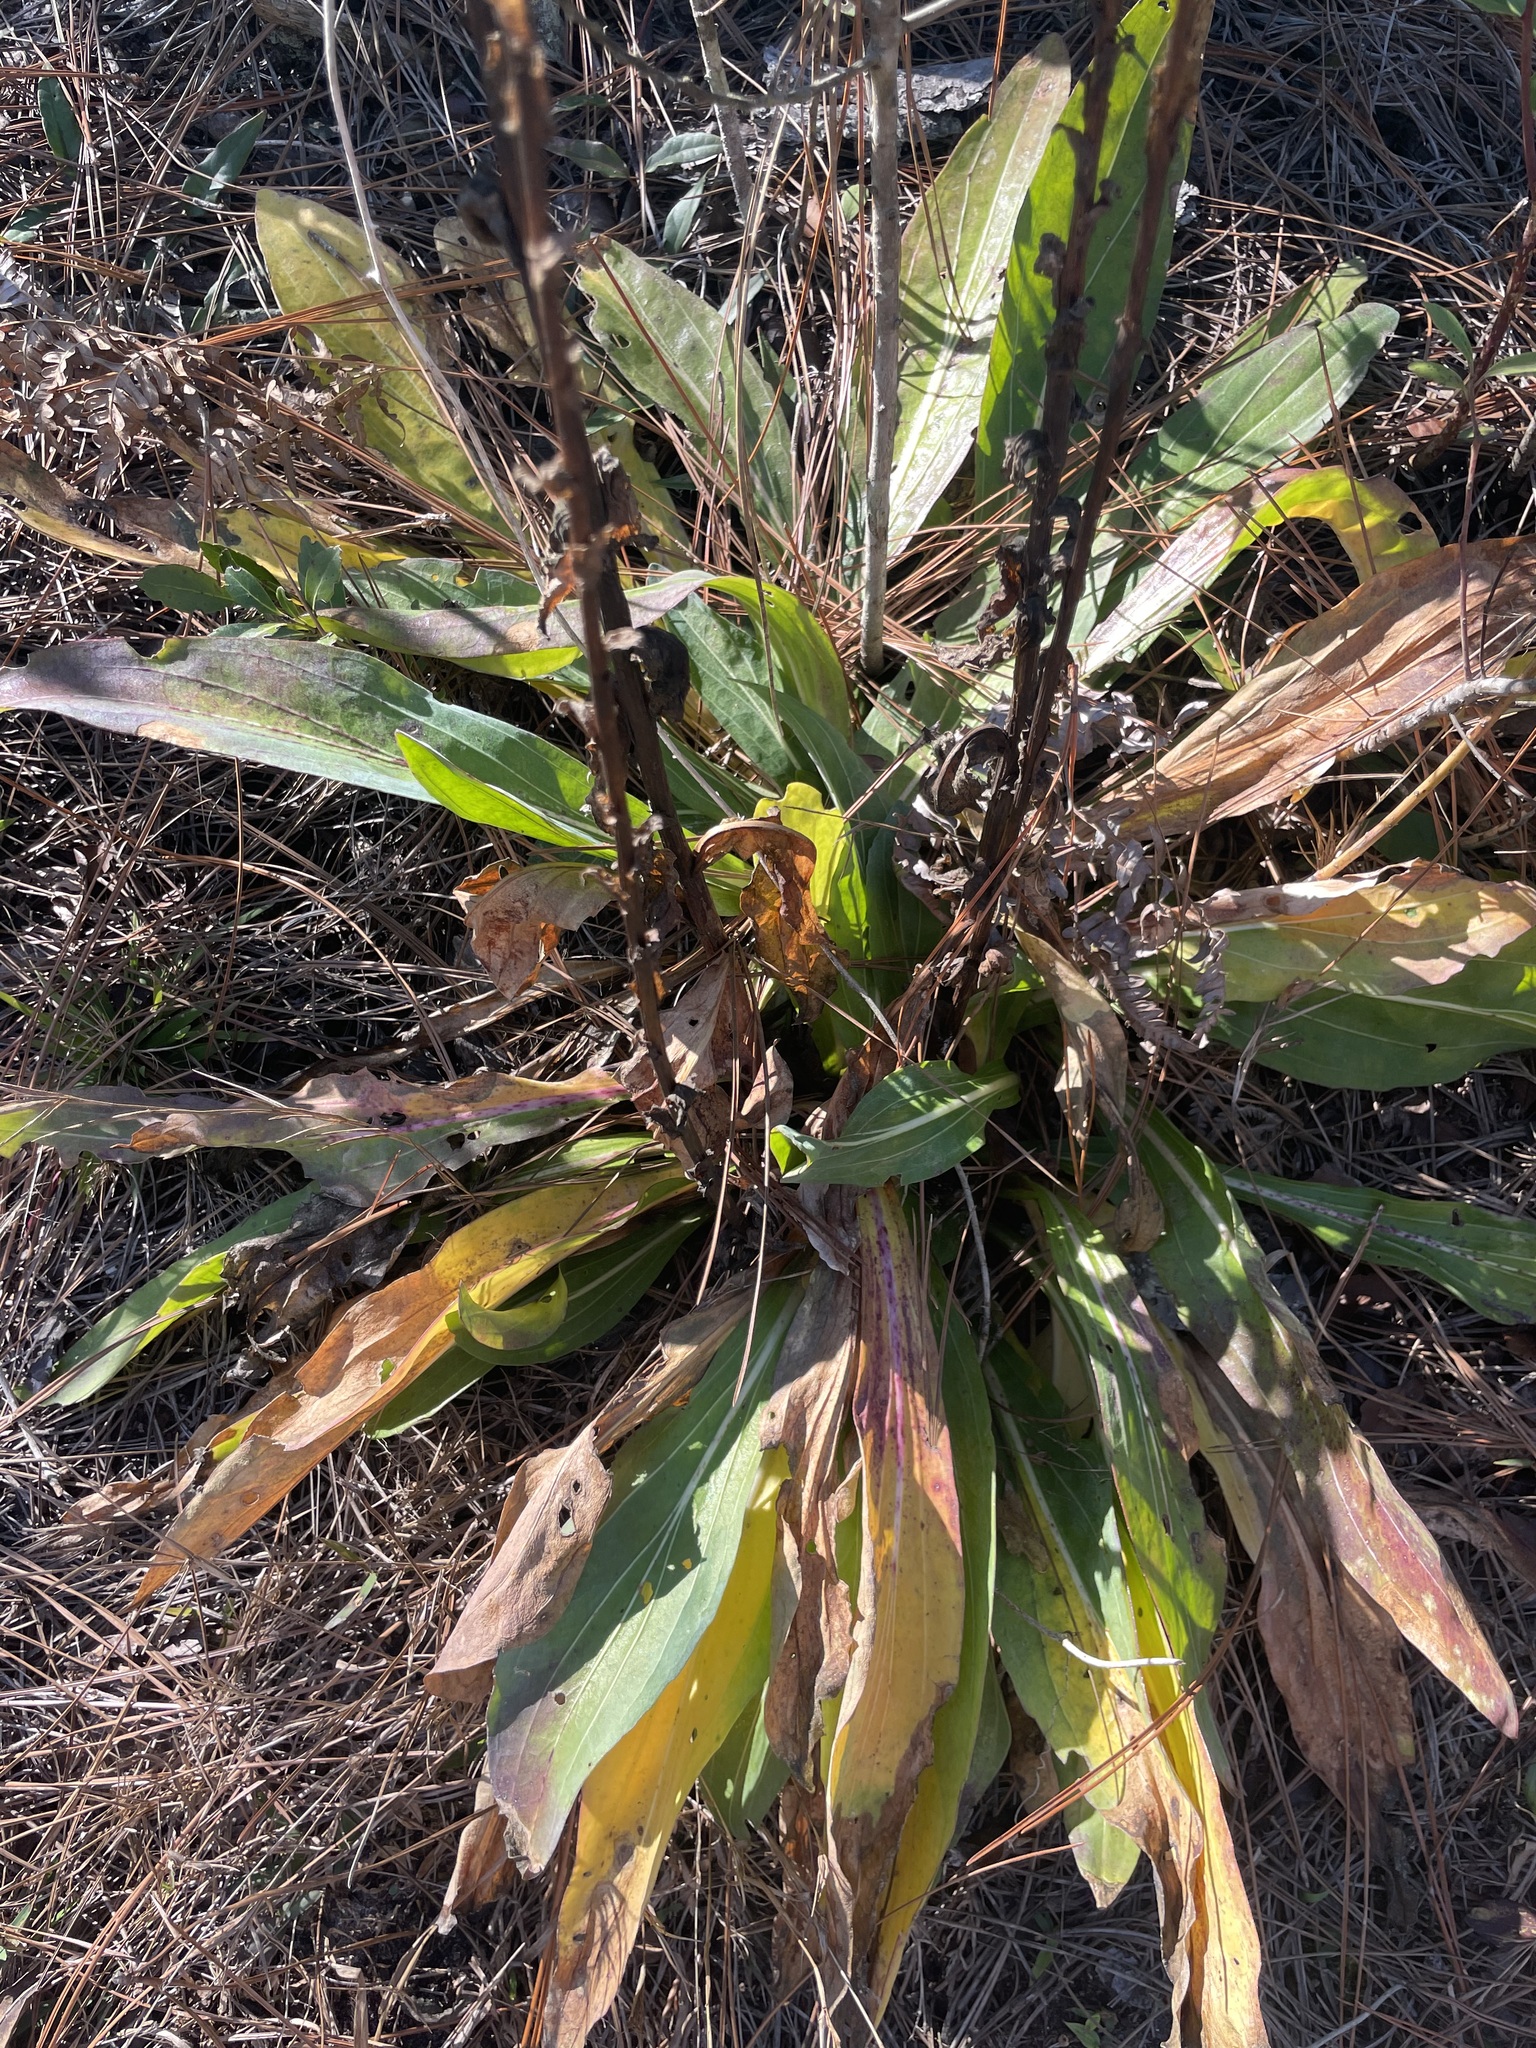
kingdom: Plantae
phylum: Tracheophyta
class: Magnoliopsida
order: Asterales
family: Asteraceae
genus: Carphephorus
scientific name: Carphephorus odoratissimus
